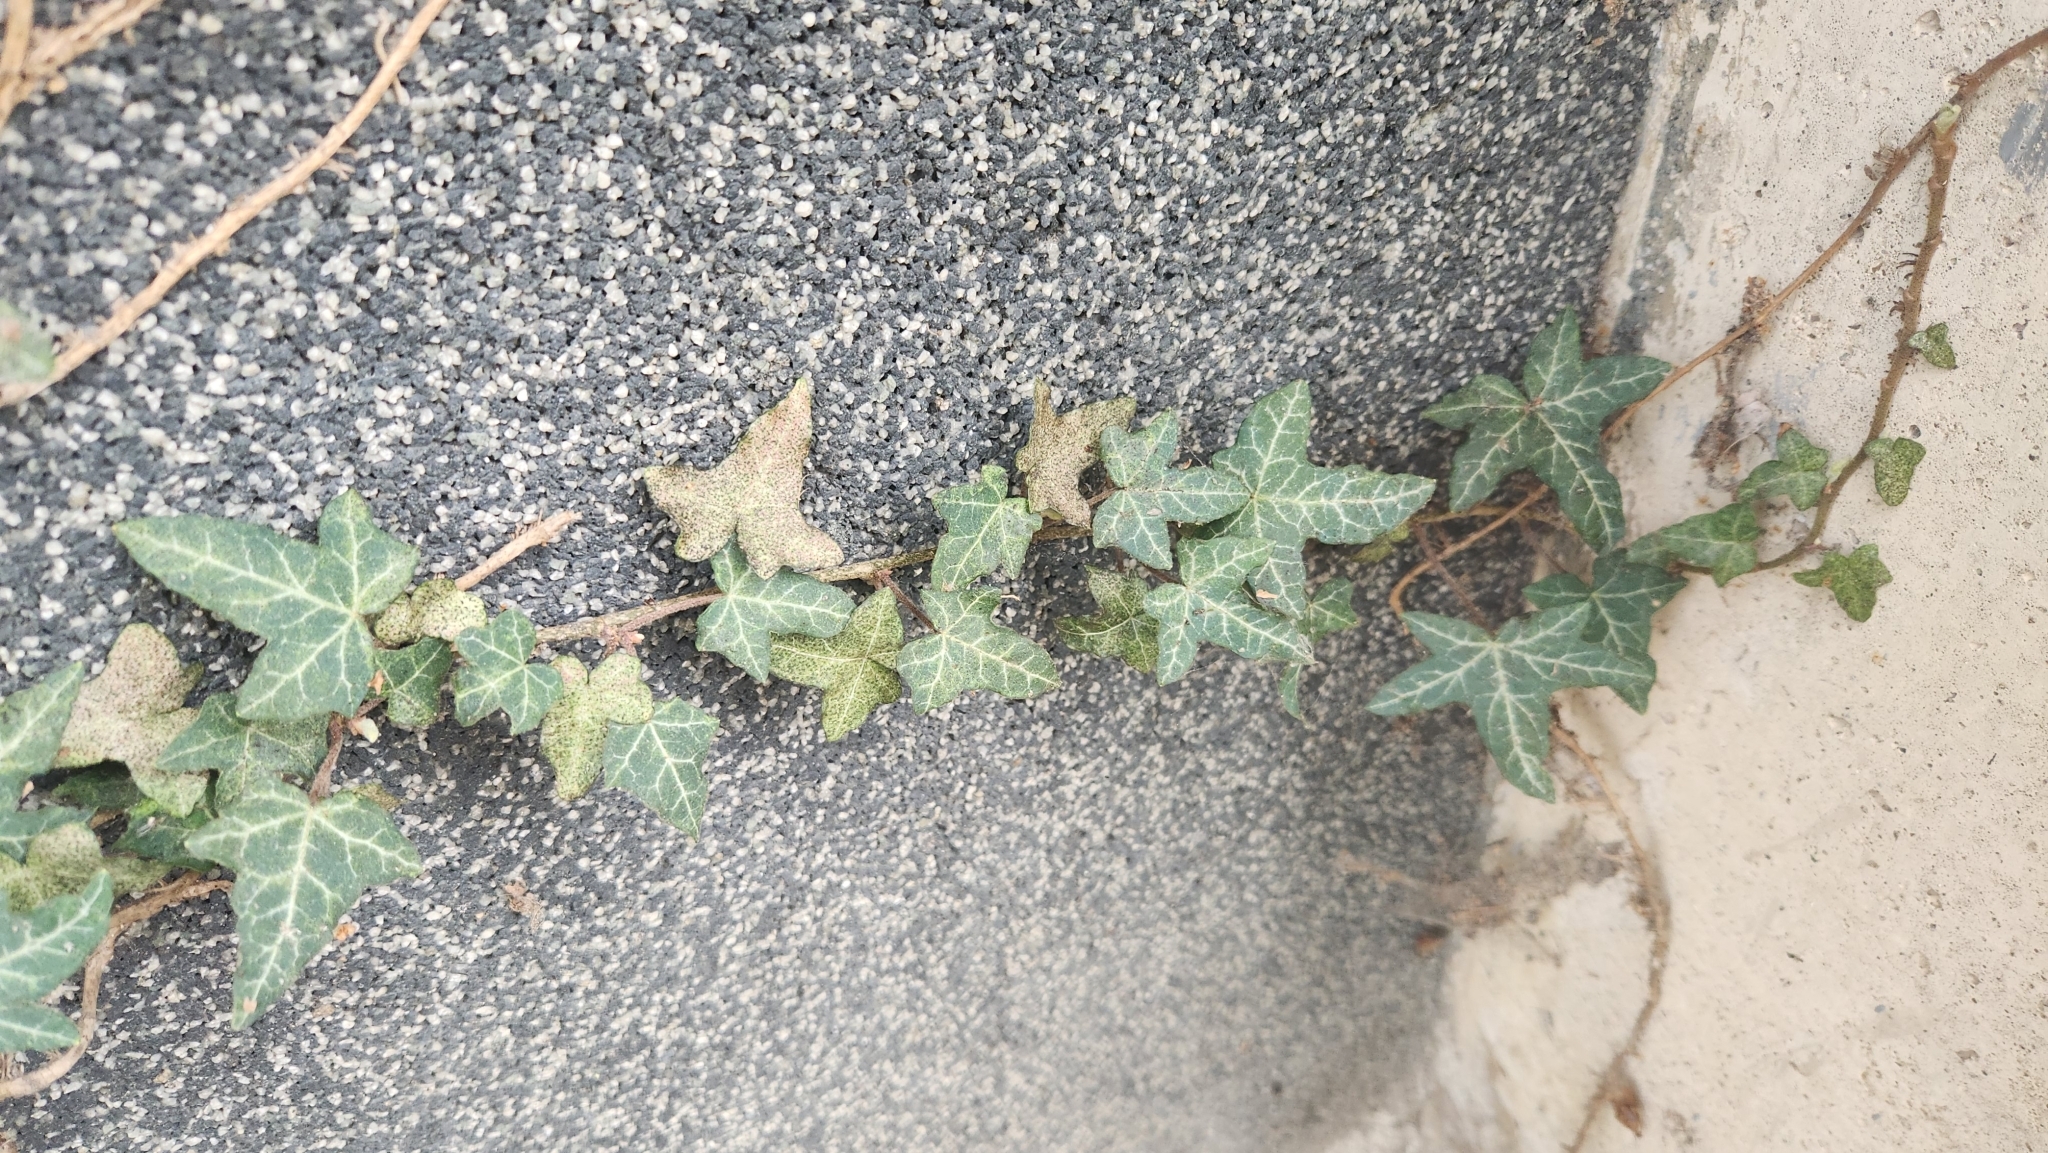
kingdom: Plantae
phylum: Tracheophyta
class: Magnoliopsida
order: Apiales
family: Araliaceae
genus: Hedera
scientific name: Hedera helix
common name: Ivy
